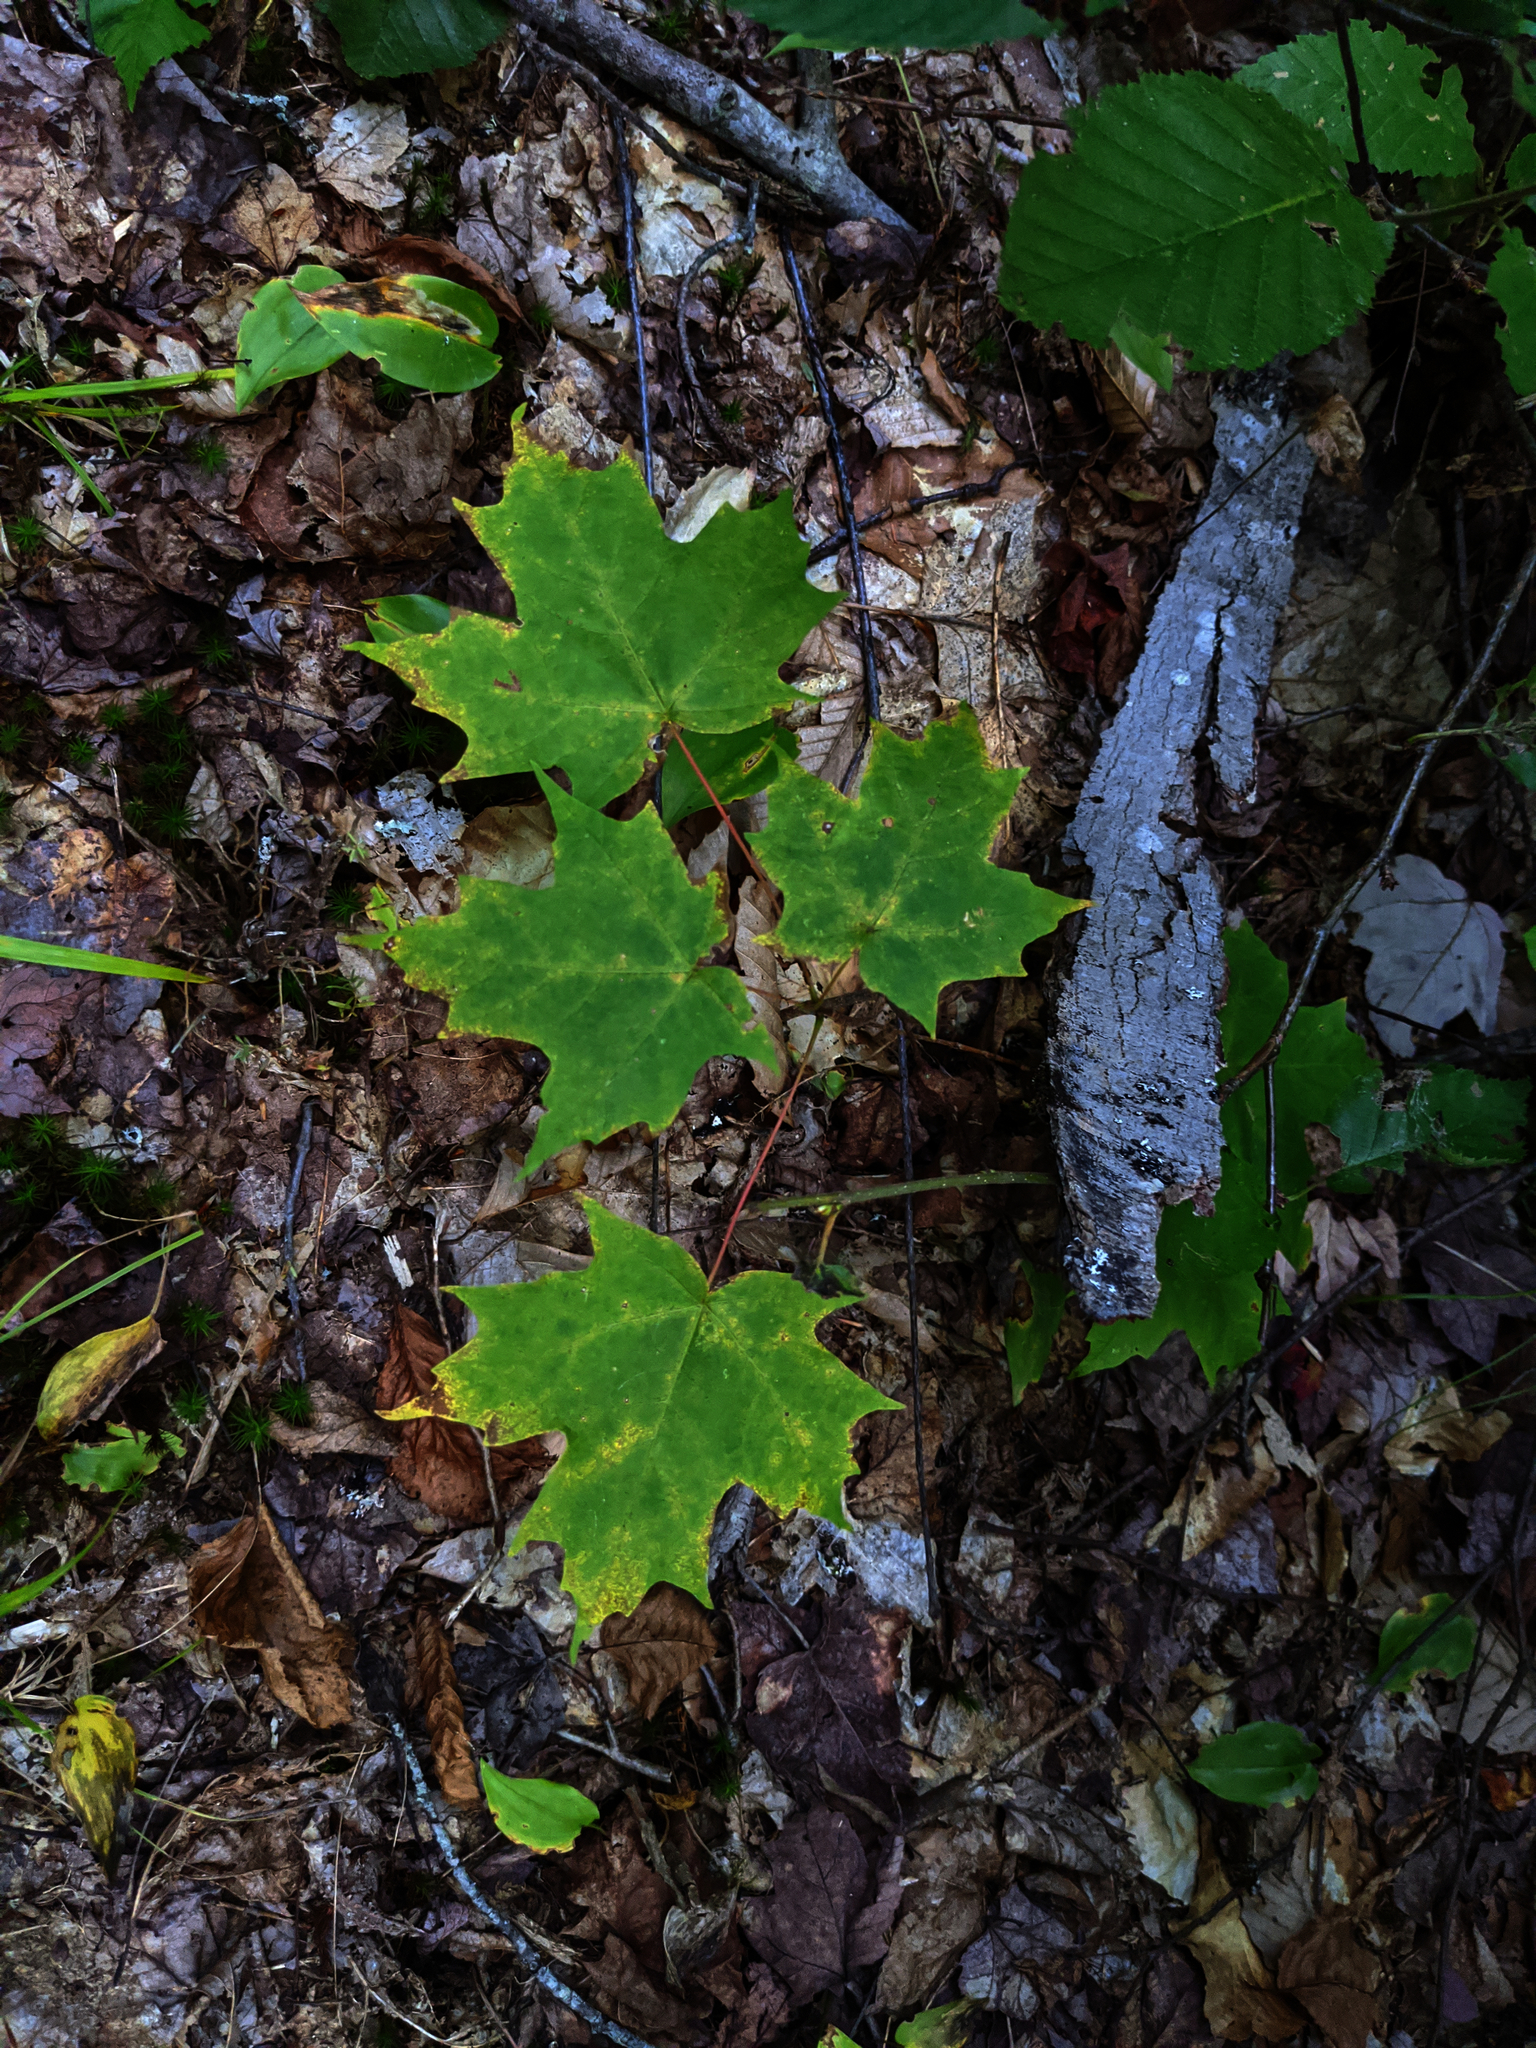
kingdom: Plantae
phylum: Tracheophyta
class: Magnoliopsida
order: Sapindales
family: Sapindaceae
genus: Acer
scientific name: Acer saccharum
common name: Sugar maple
